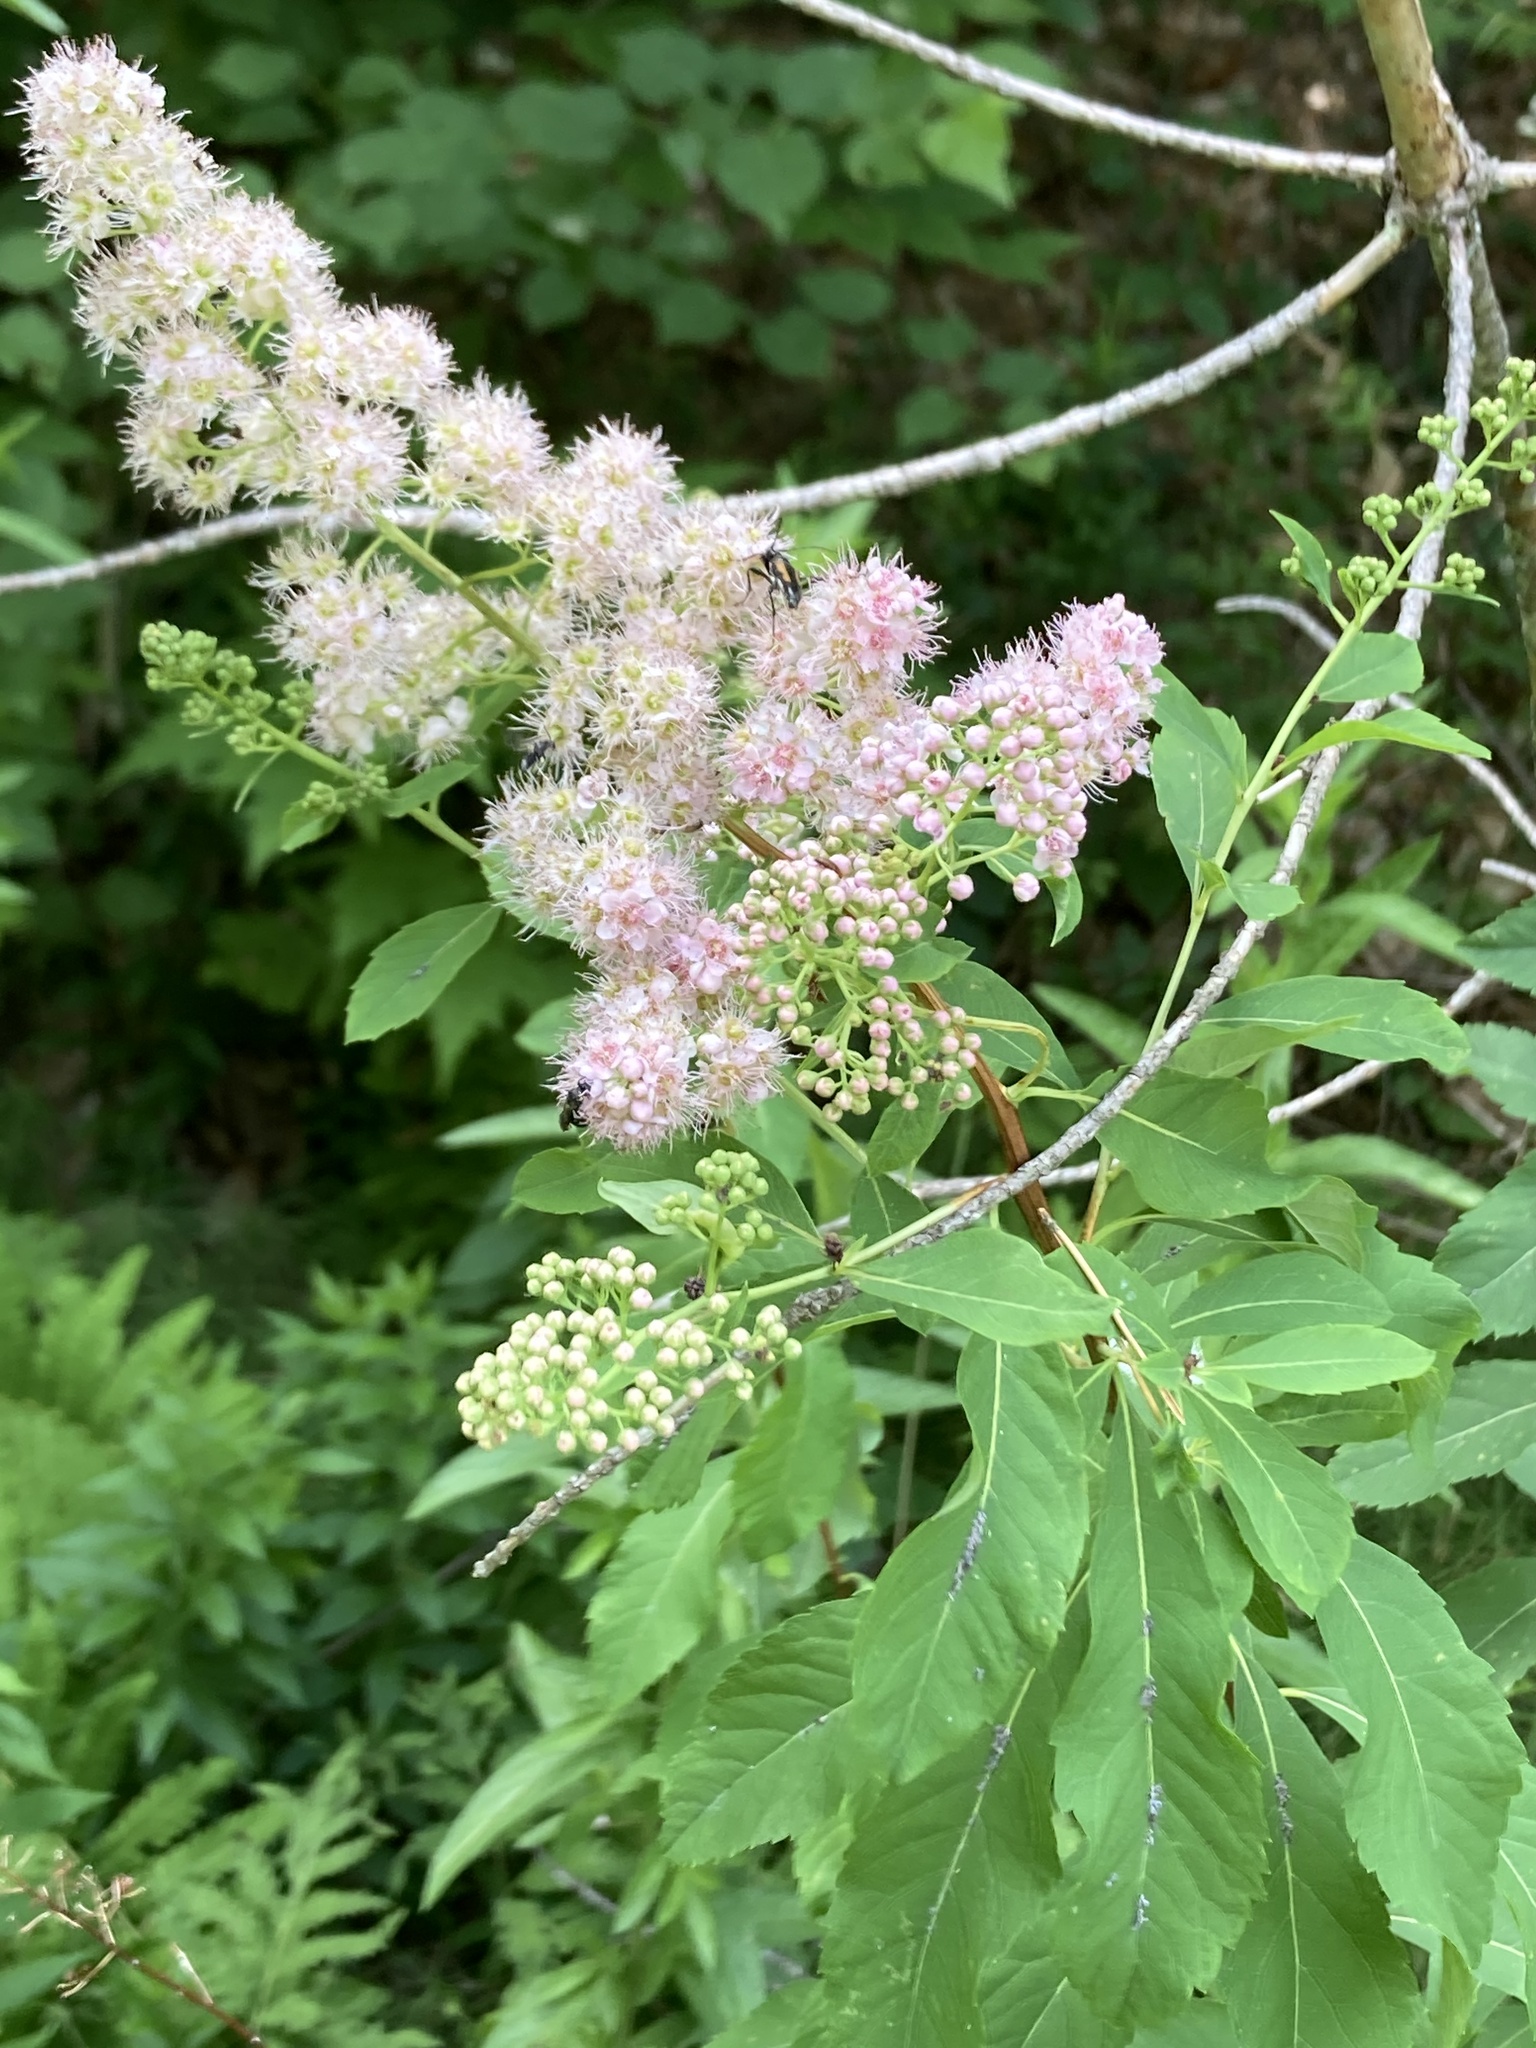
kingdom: Plantae
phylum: Tracheophyta
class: Magnoliopsida
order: Rosales
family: Rosaceae
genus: Spiraea
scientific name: Spiraea alba
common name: Pale bridewort
